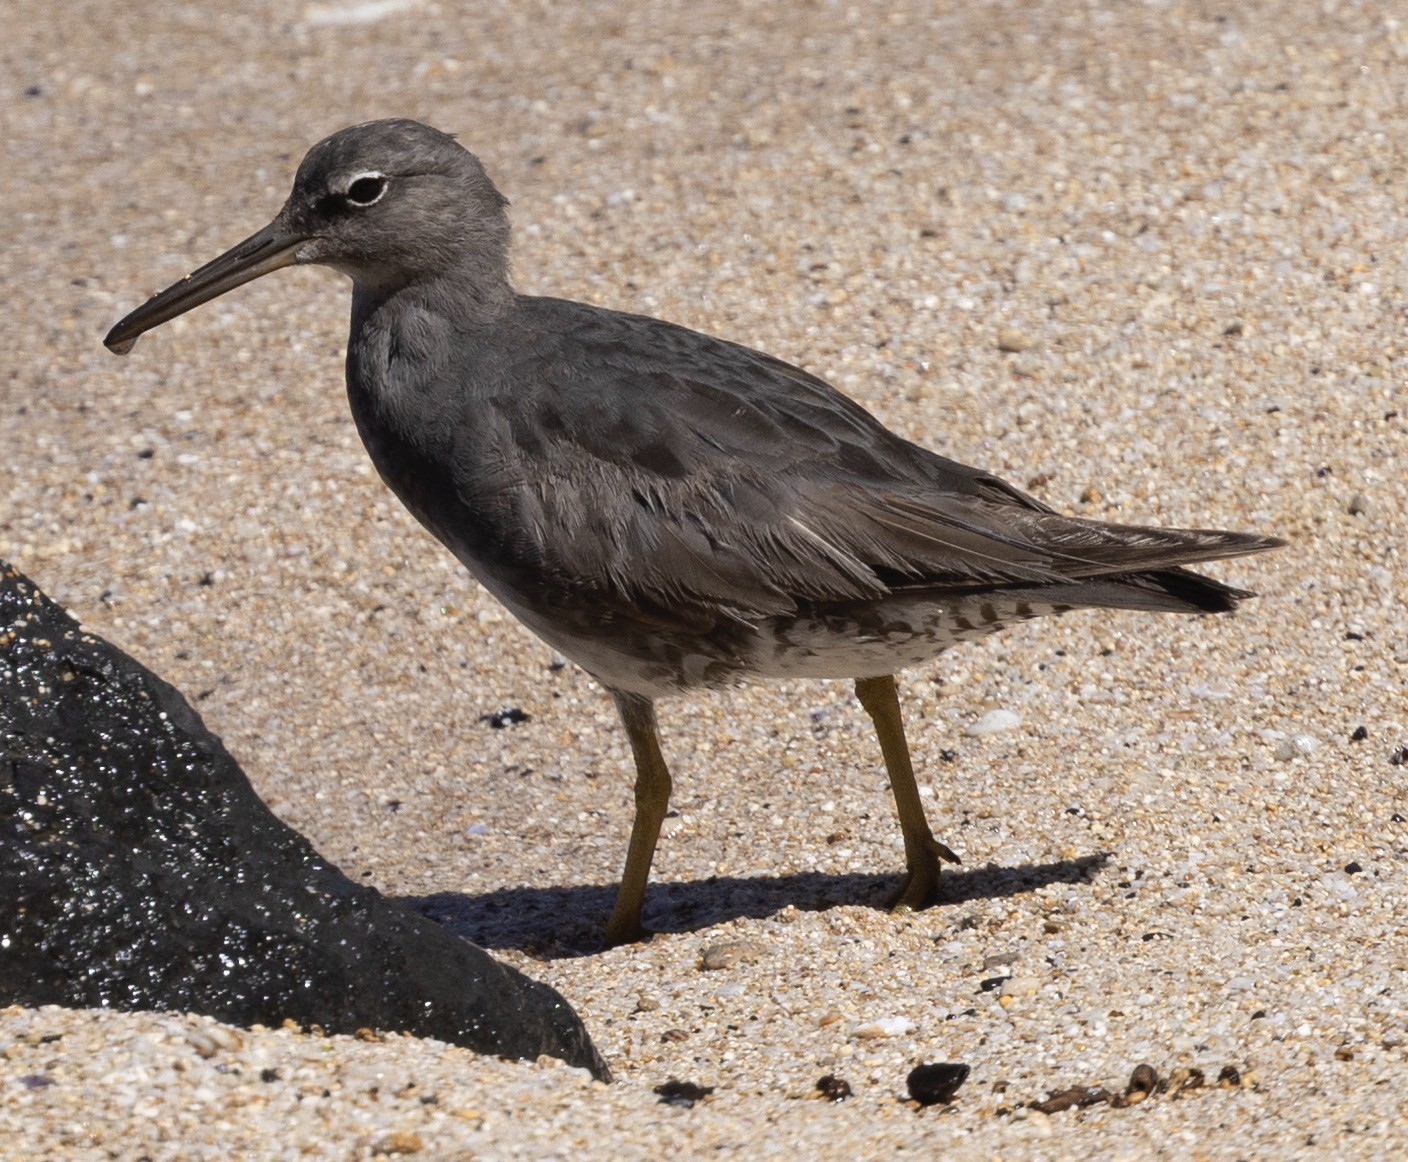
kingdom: Animalia
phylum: Chordata
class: Aves
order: Charadriiformes
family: Scolopacidae
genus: Tringa
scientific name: Tringa incana
